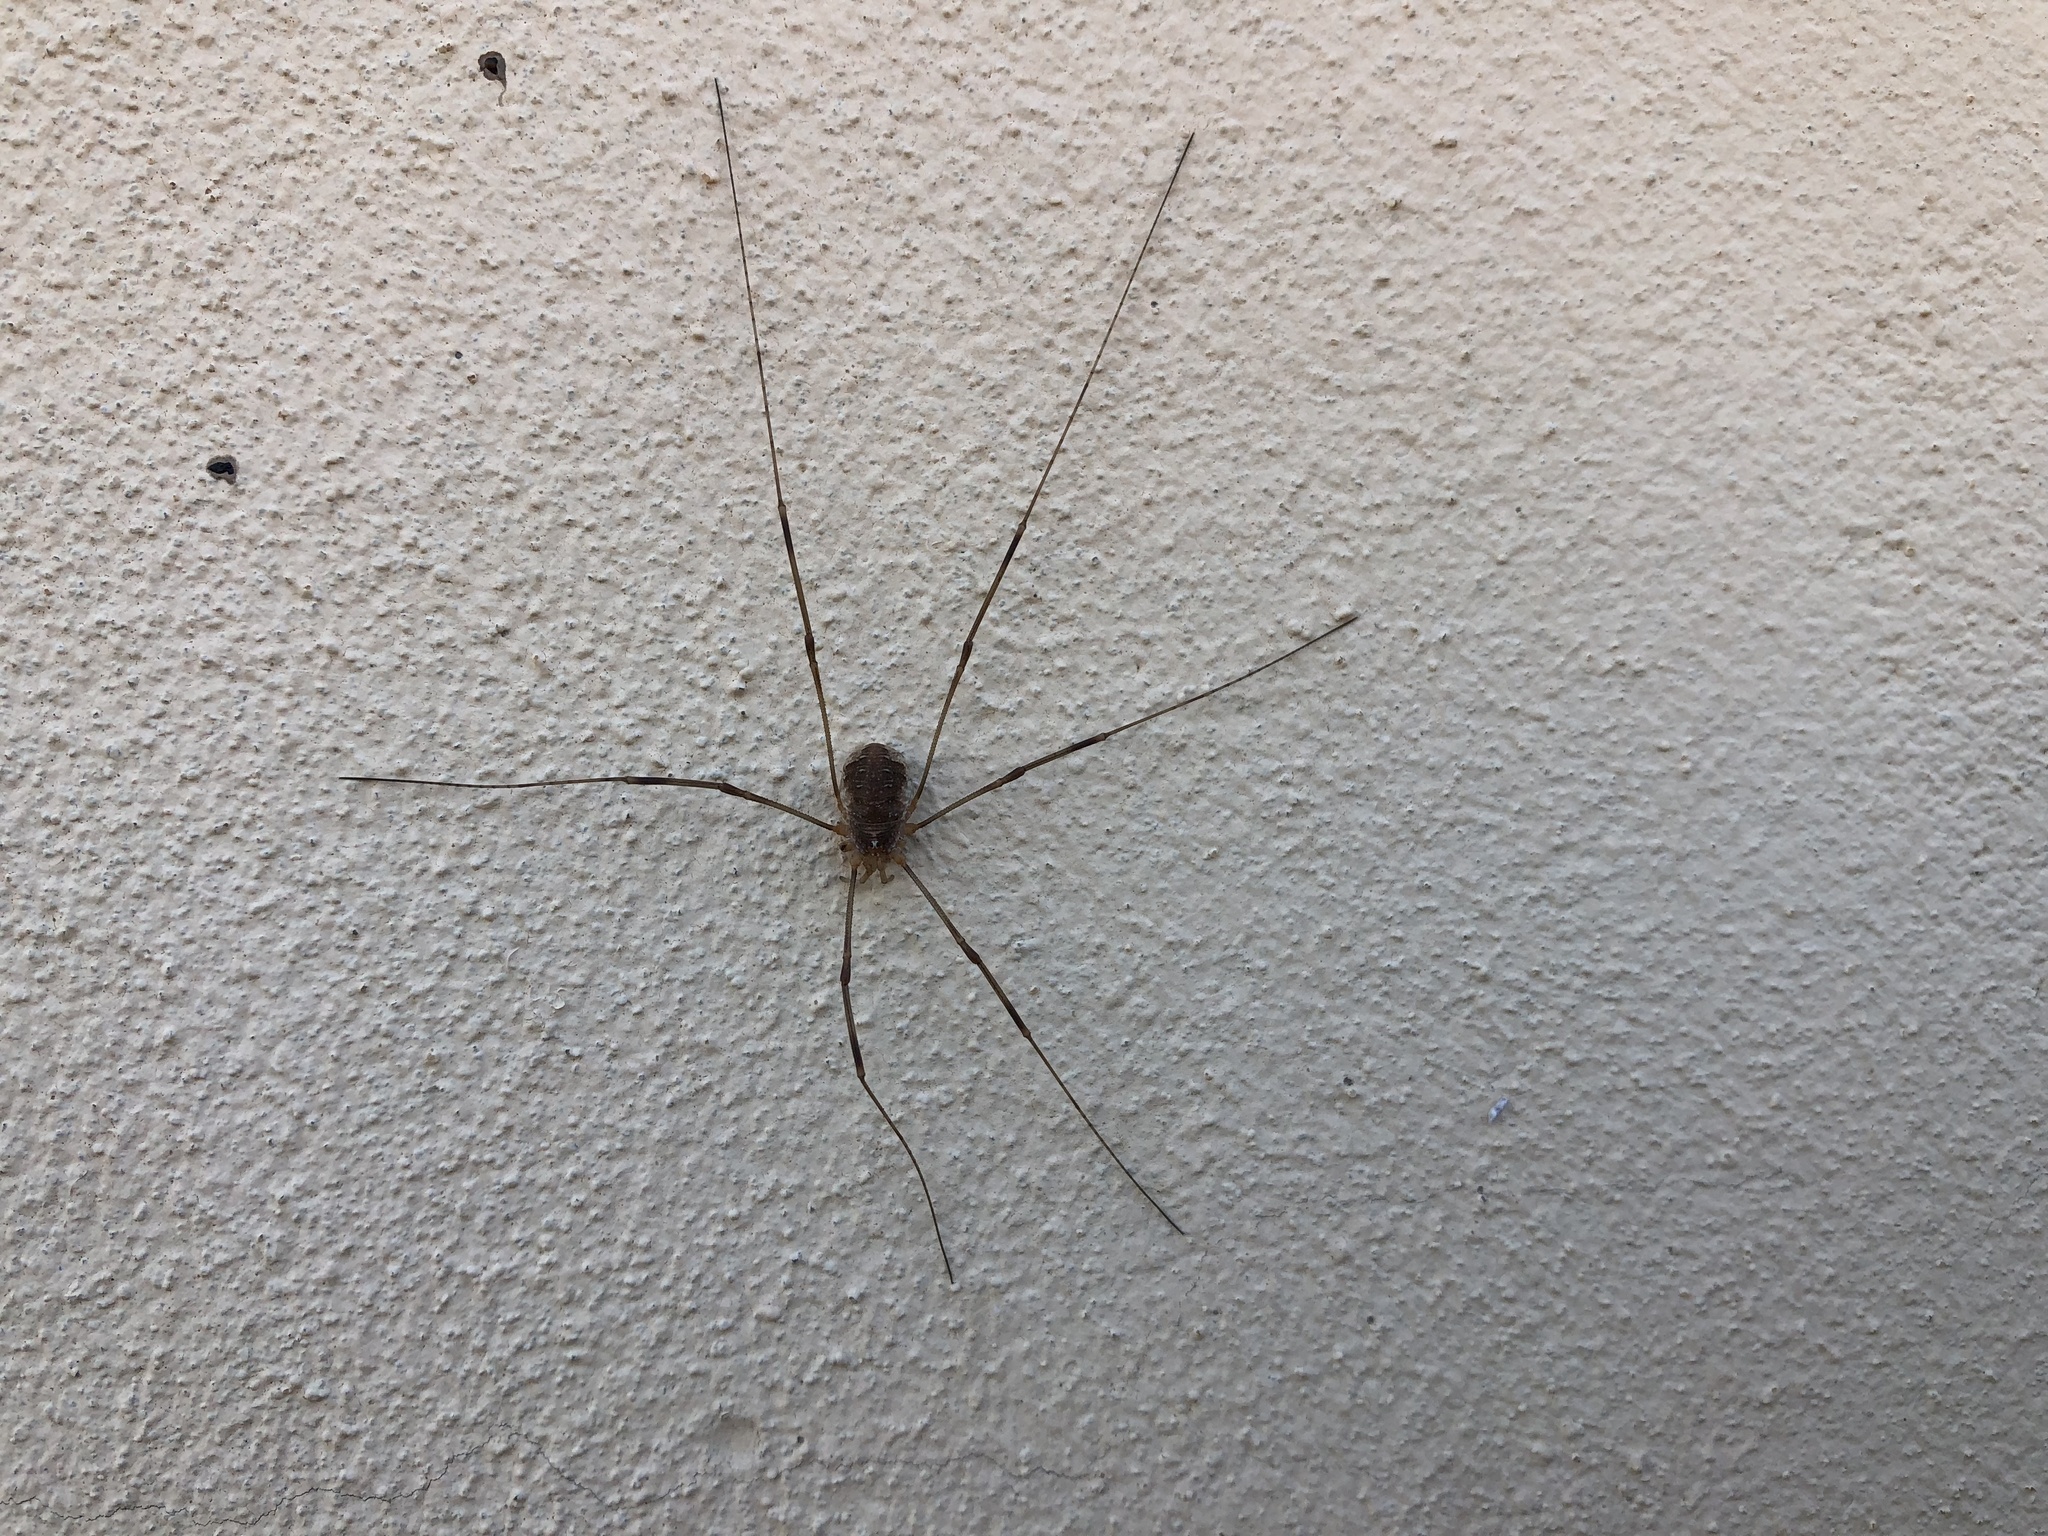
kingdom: Animalia
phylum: Arthropoda
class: Arachnida
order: Opiliones
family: Phalangiidae
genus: Opilio
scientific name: Opilio canestrinii
